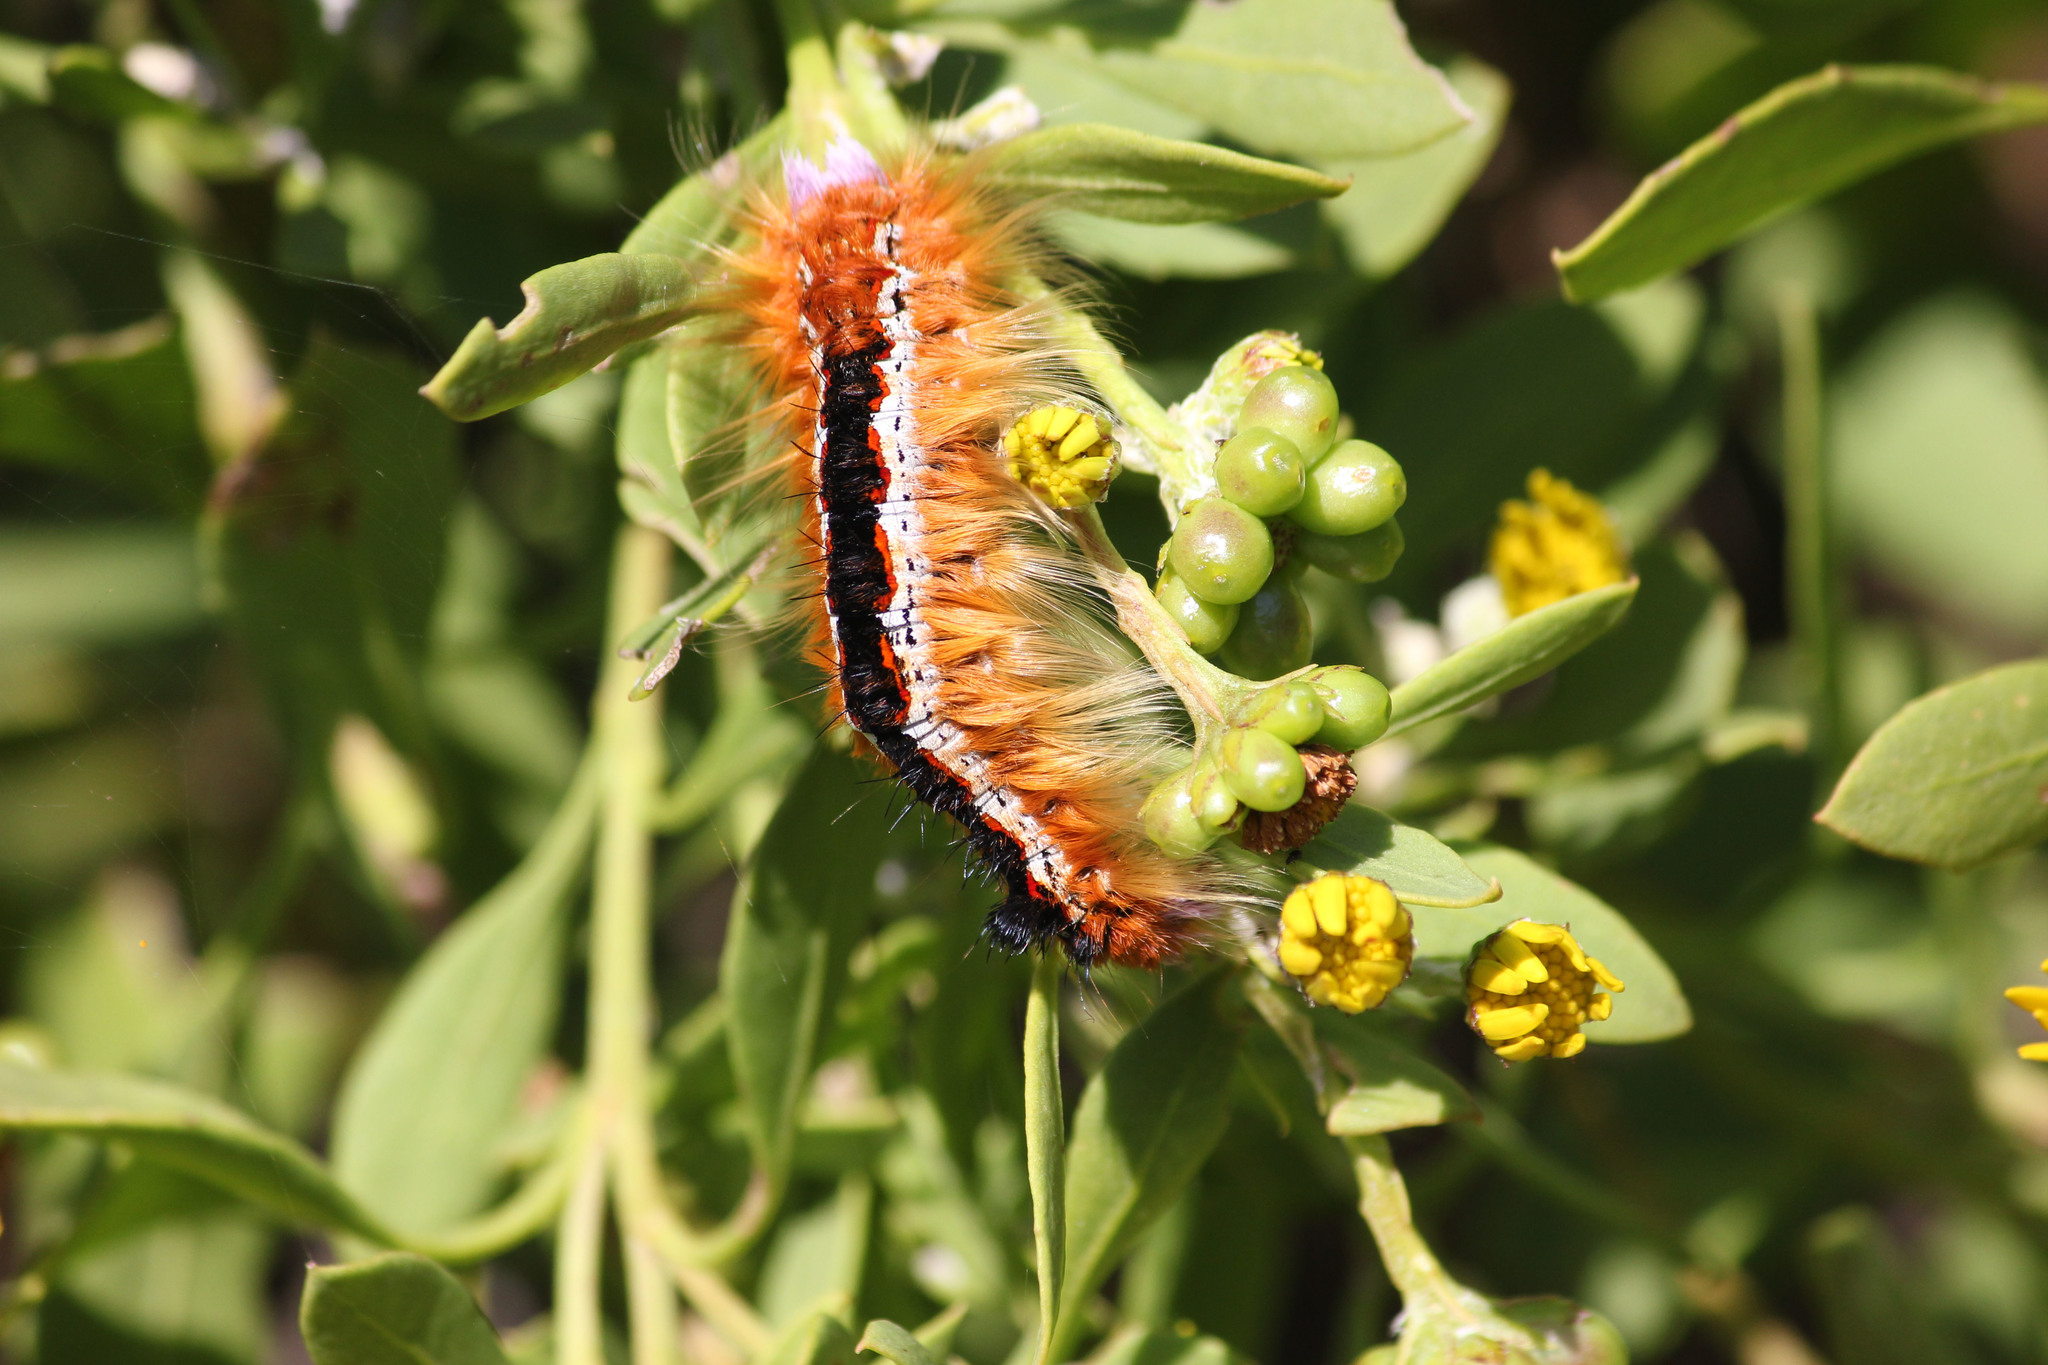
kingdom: Animalia
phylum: Arthropoda
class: Insecta
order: Lepidoptera
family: Lasiocampidae
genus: Eutricha
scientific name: Eutricha capensis
